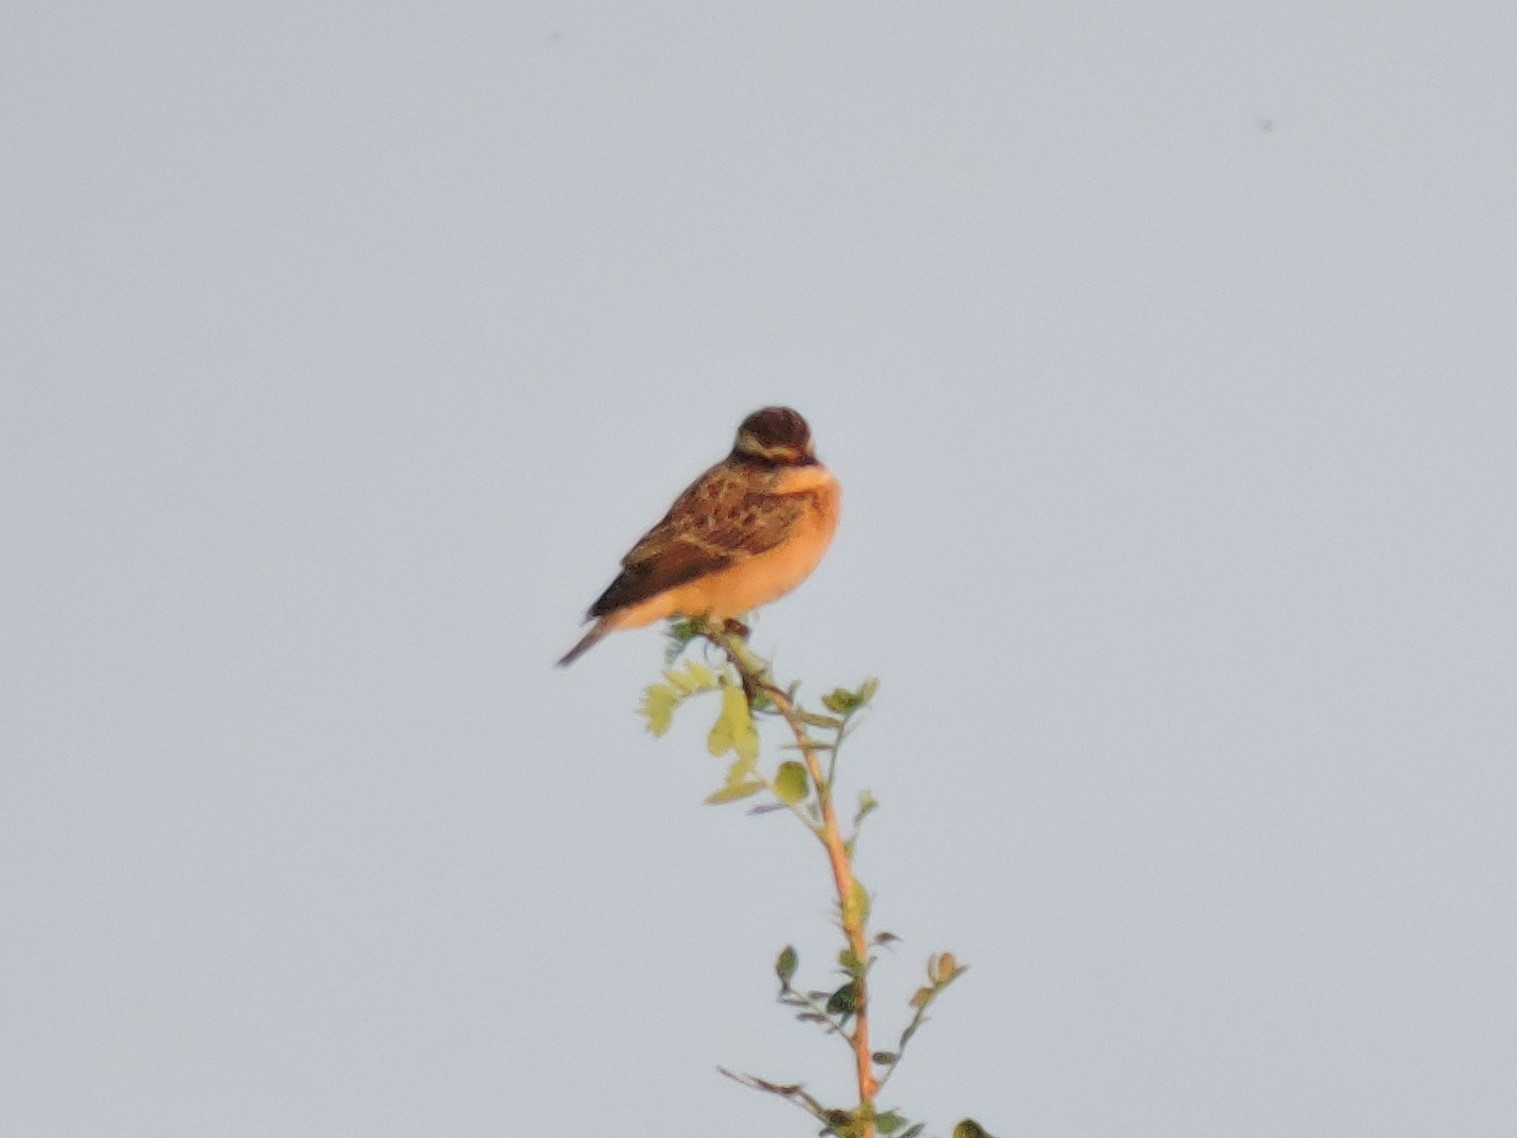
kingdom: Animalia
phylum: Chordata
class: Aves
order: Passeriformes
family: Muscicapidae
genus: Saxicola
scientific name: Saxicola rubetra
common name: Whinchat
